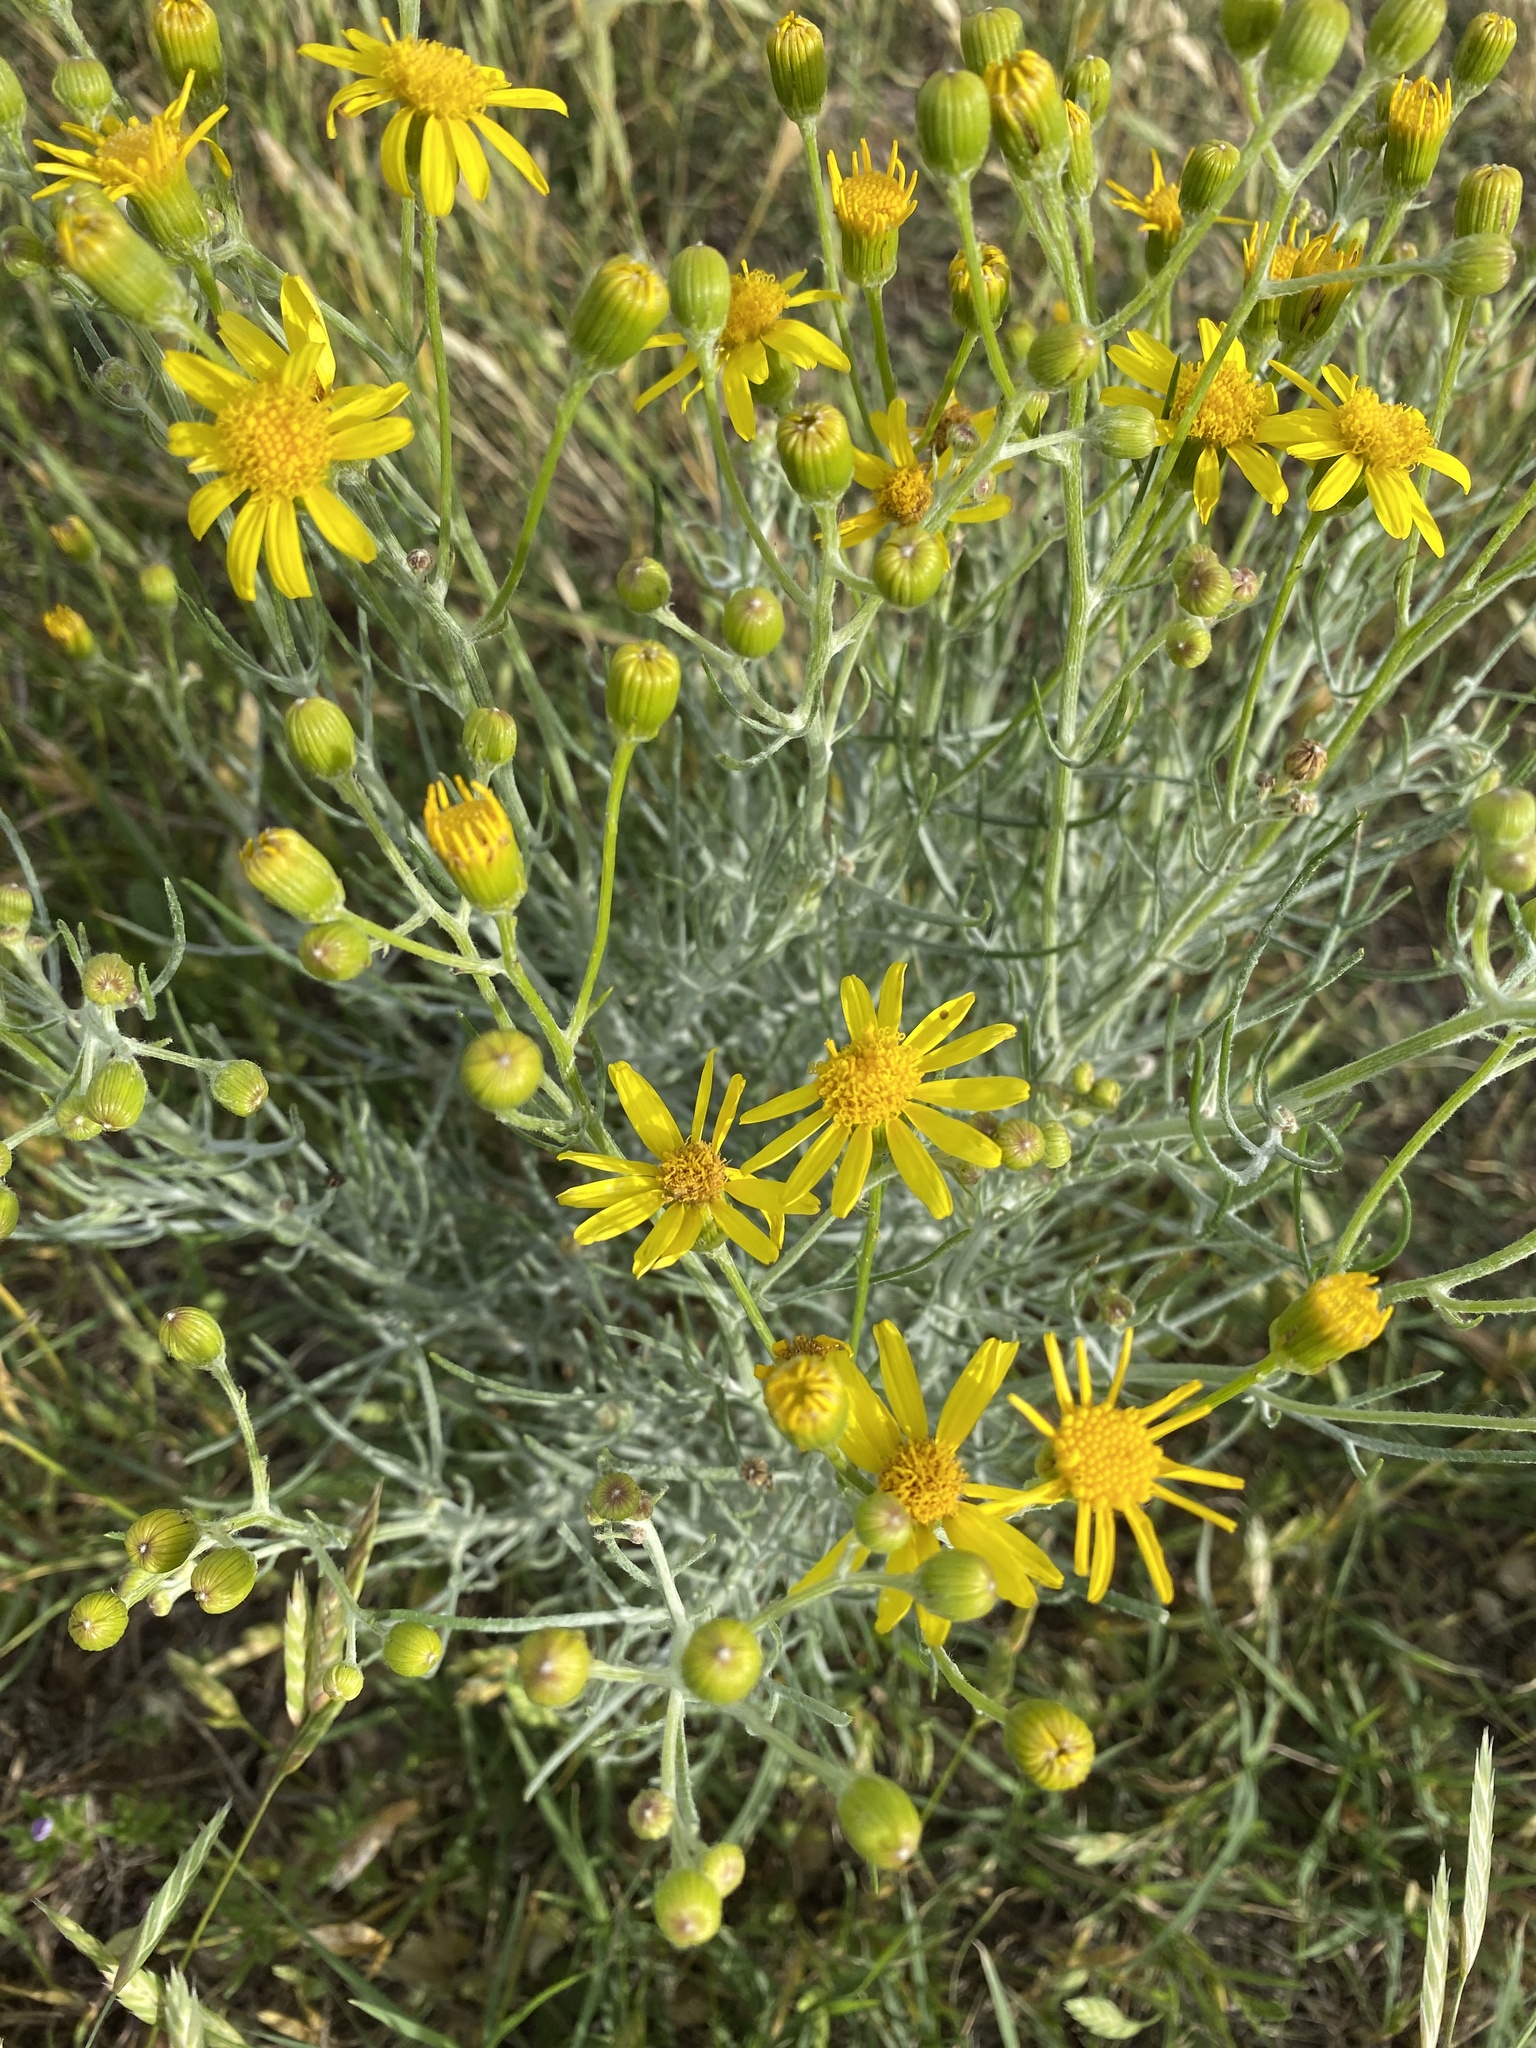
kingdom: Plantae
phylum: Tracheophyta
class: Magnoliopsida
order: Asterales
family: Asteraceae
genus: Senecio
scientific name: Senecio flaccidus
